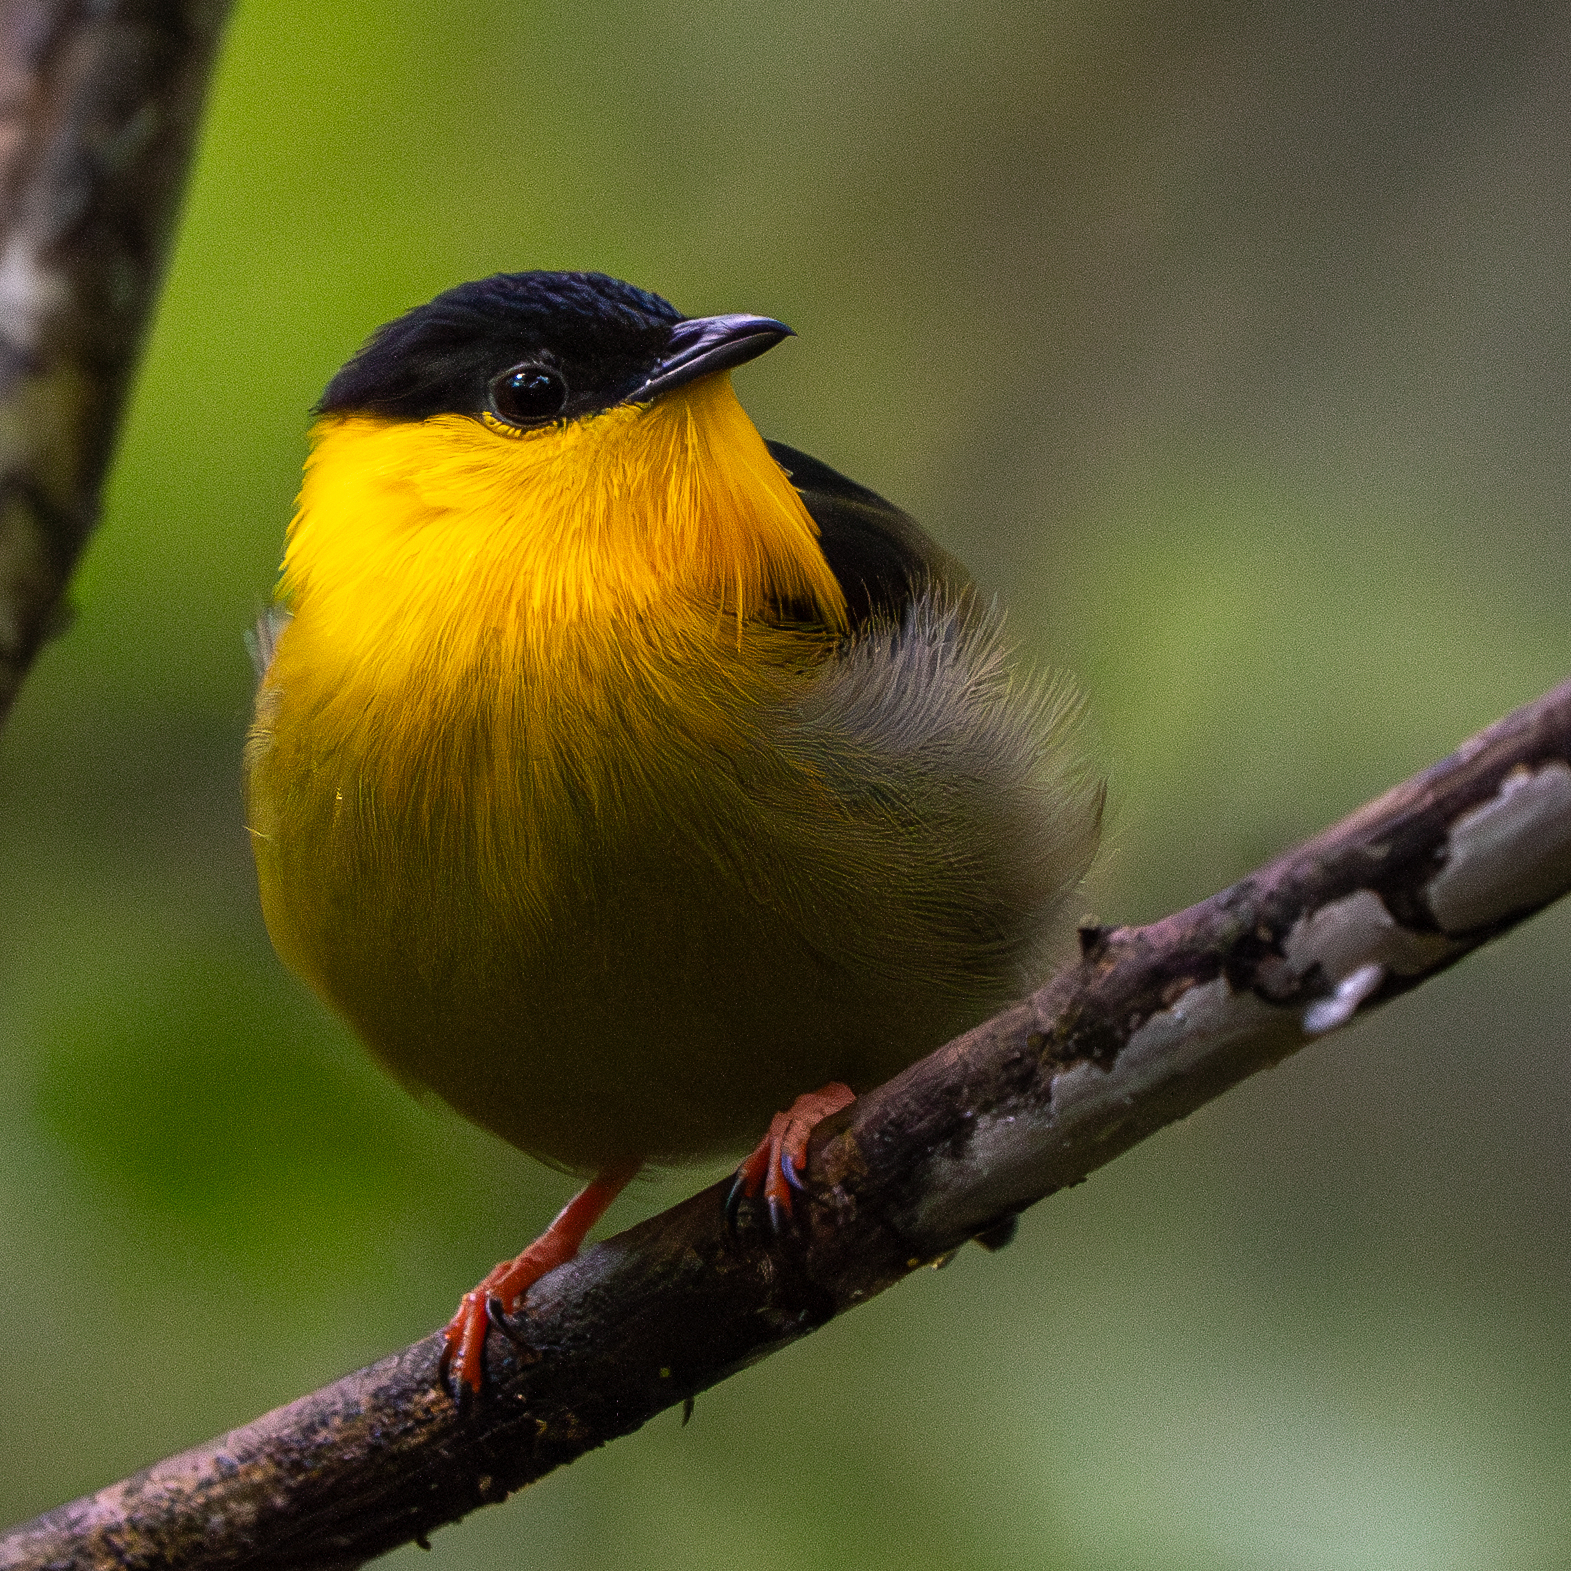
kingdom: Animalia
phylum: Chordata
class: Aves
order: Passeriformes
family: Pipridae
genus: Manacus
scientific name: Manacus vitellinus
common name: Golden-collared manakin
